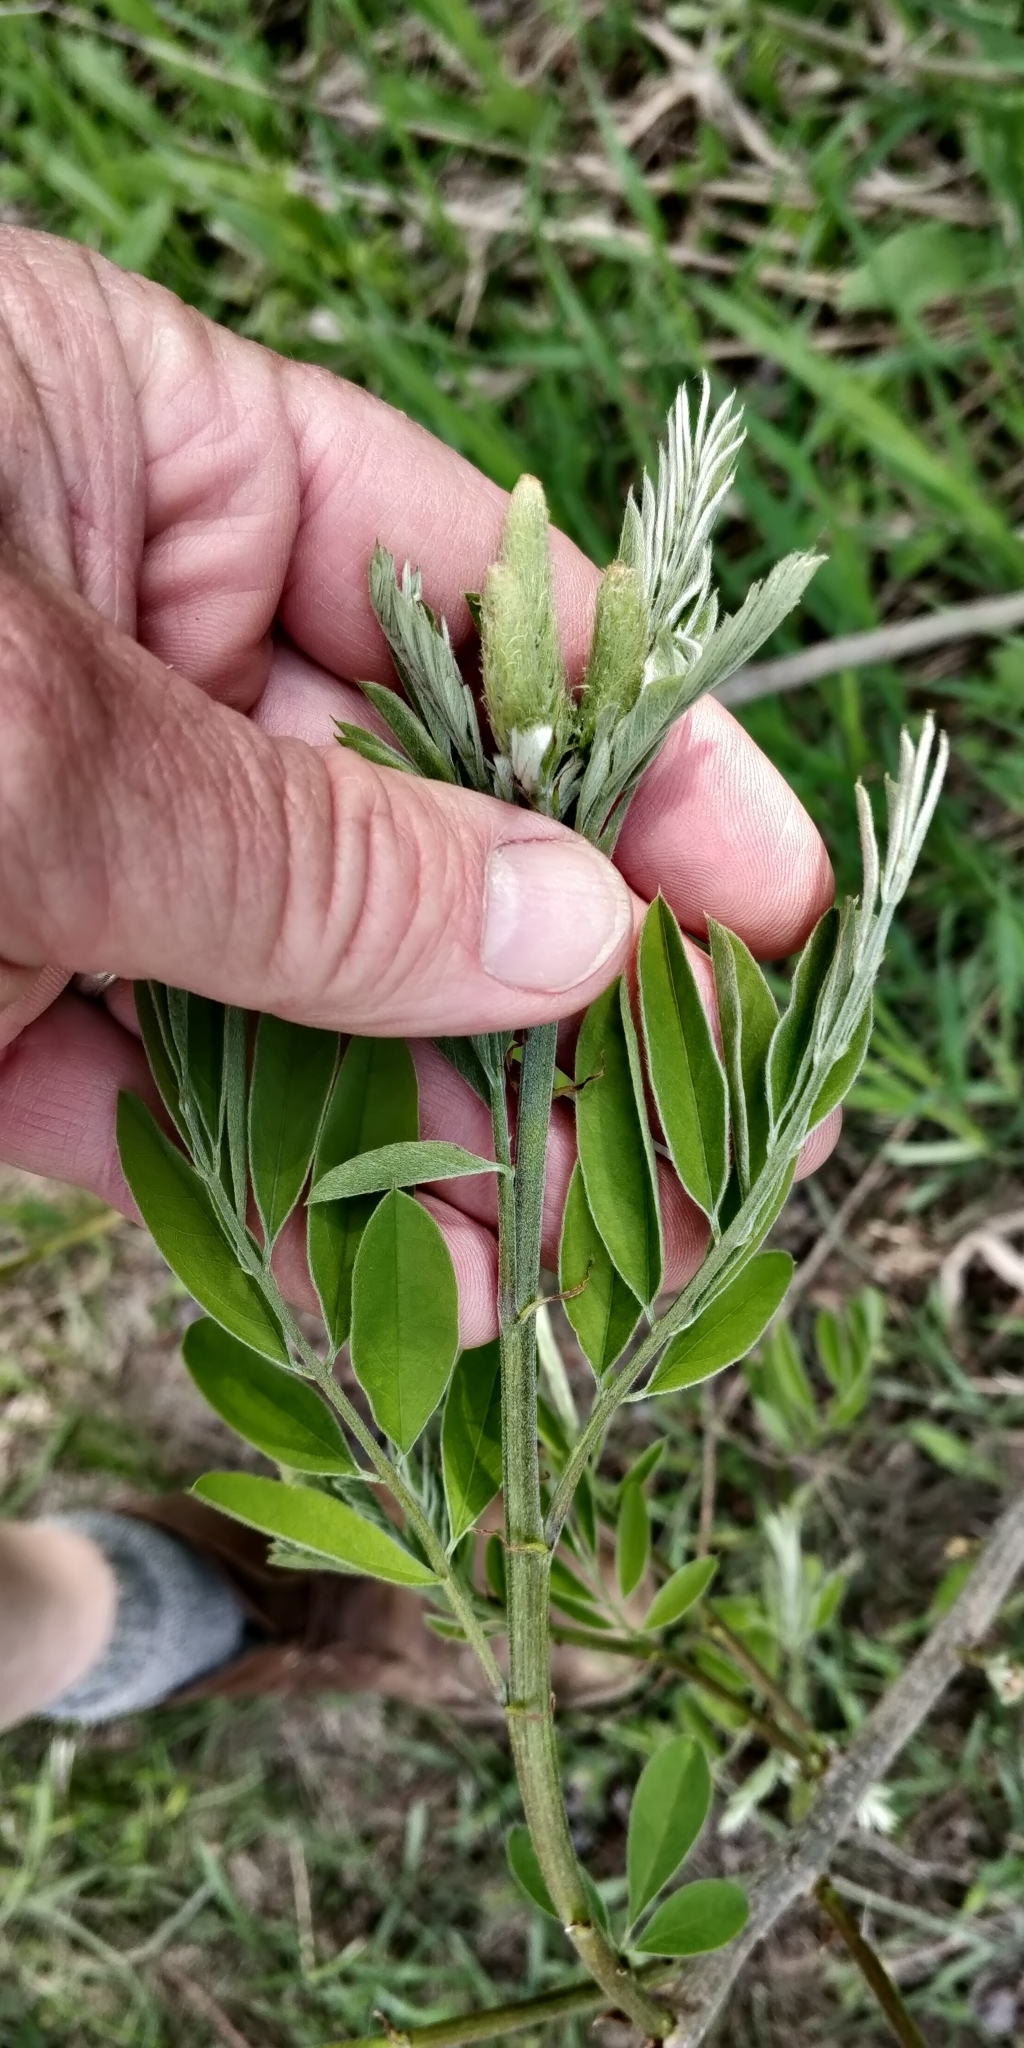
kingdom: Plantae
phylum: Tracheophyta
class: Magnoliopsida
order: Fabales
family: Fabaceae
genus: Amorpha
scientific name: Amorpha fruticosa
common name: False indigo
